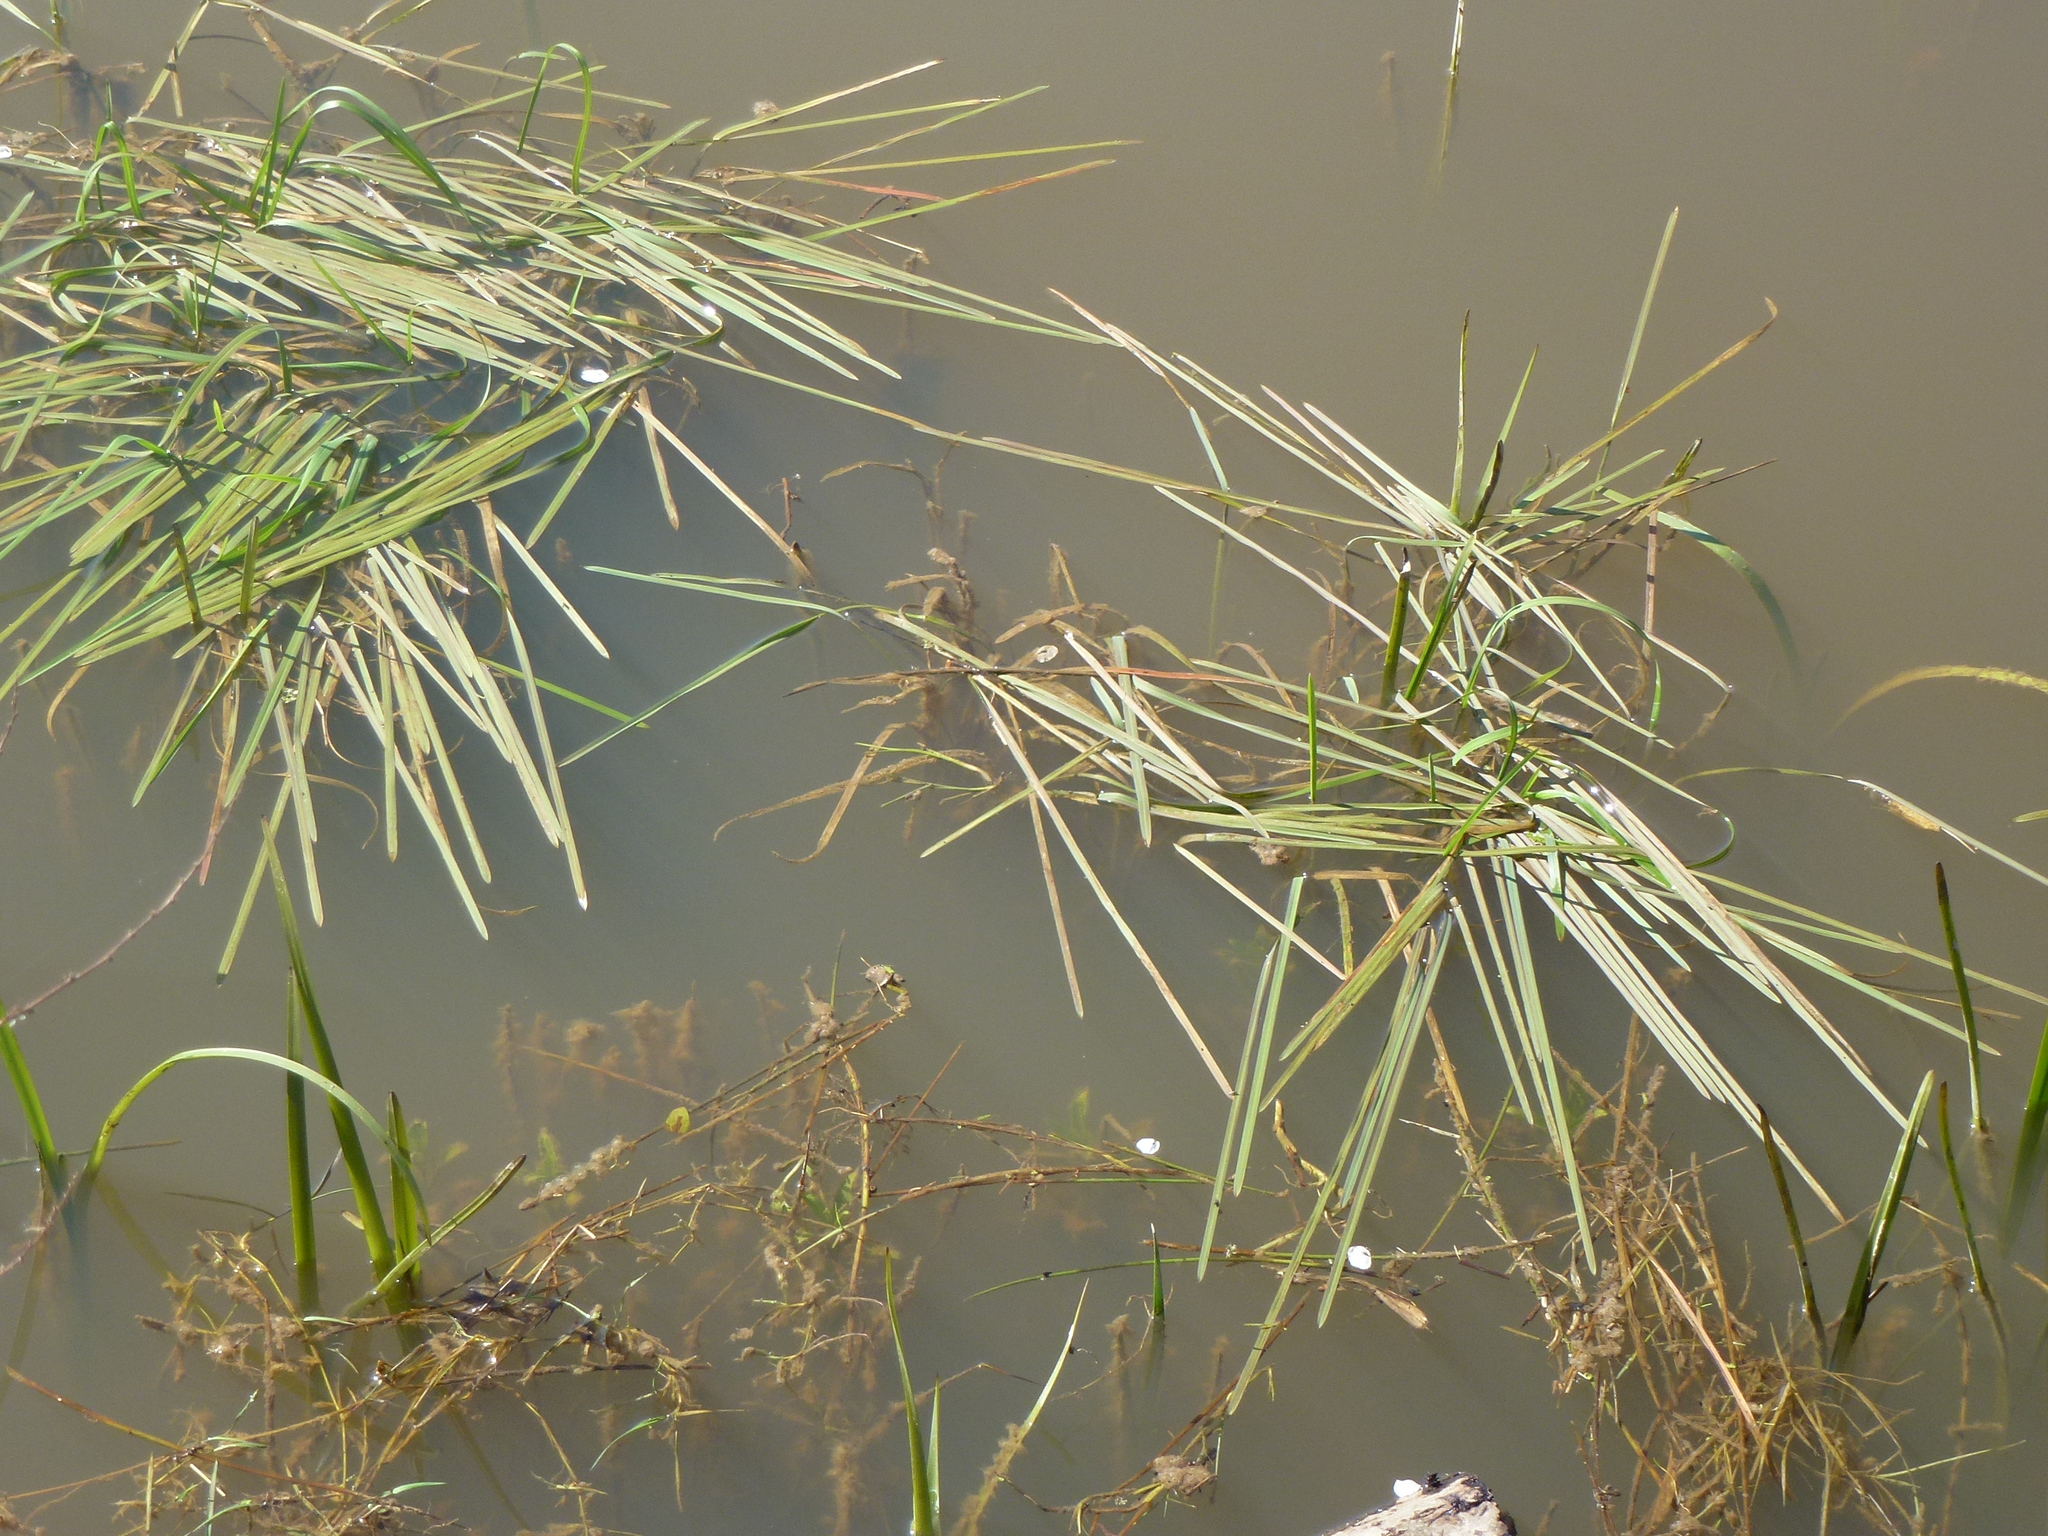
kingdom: Plantae
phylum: Tracheophyta
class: Liliopsida
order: Poales
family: Poaceae
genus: Glyceria
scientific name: Glyceria fluitans
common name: Floating sweet-grass
